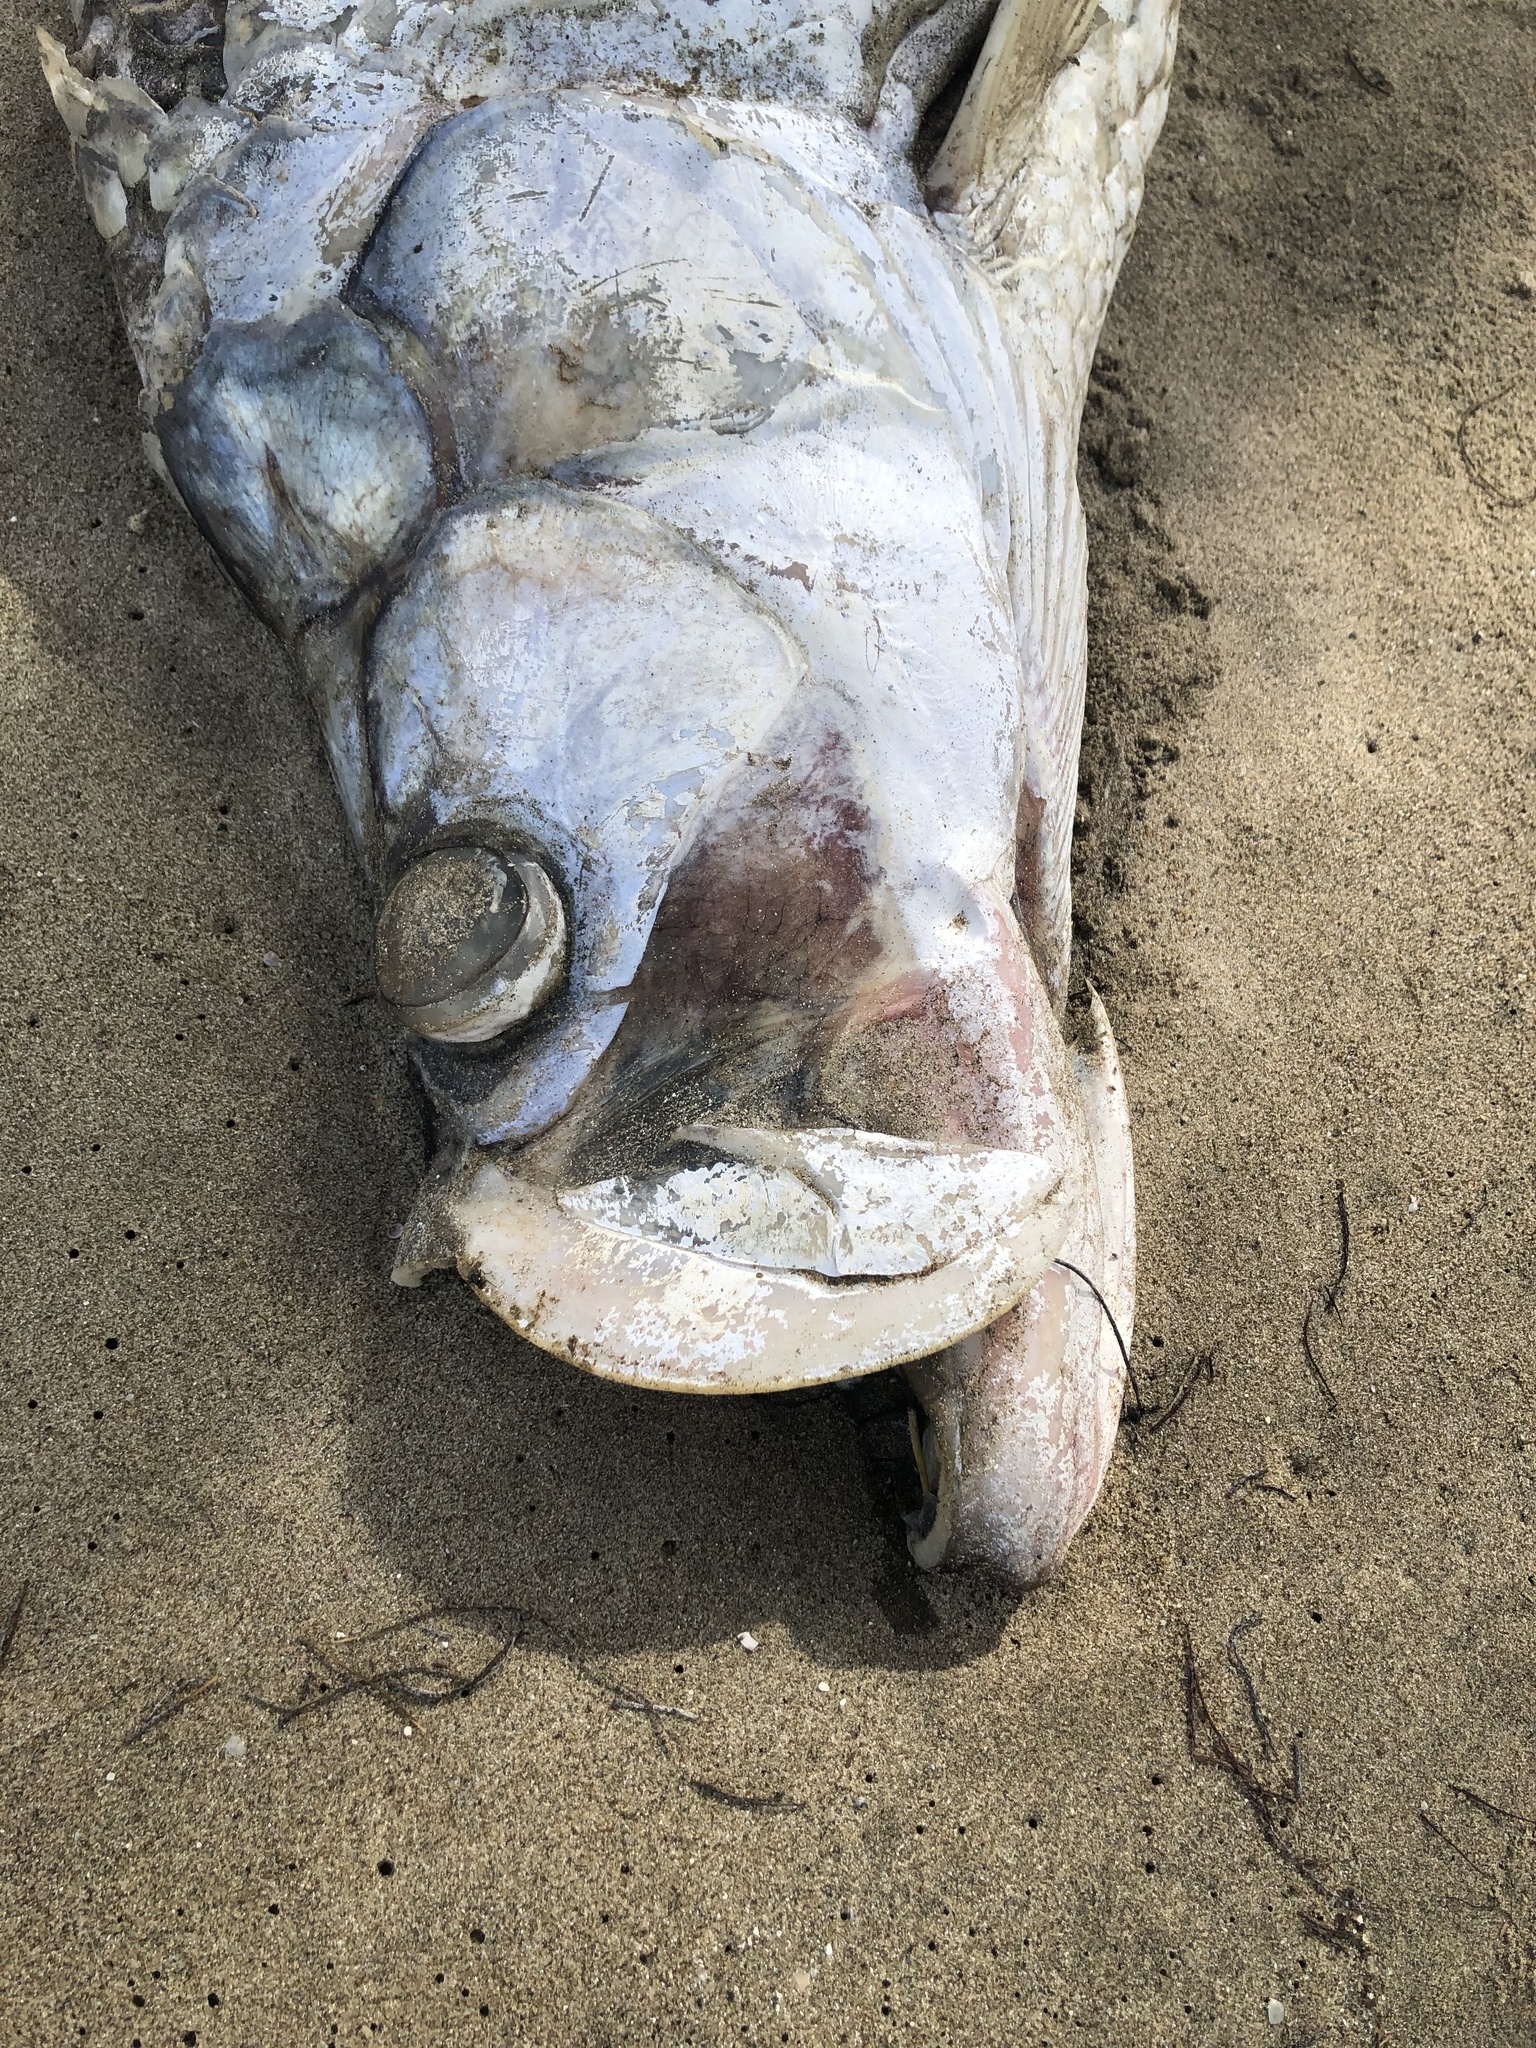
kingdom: Animalia
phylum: Chordata
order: Elopiformes
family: Megalopidae
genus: Megalops
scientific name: Megalops atlanticus
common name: Tarpon
